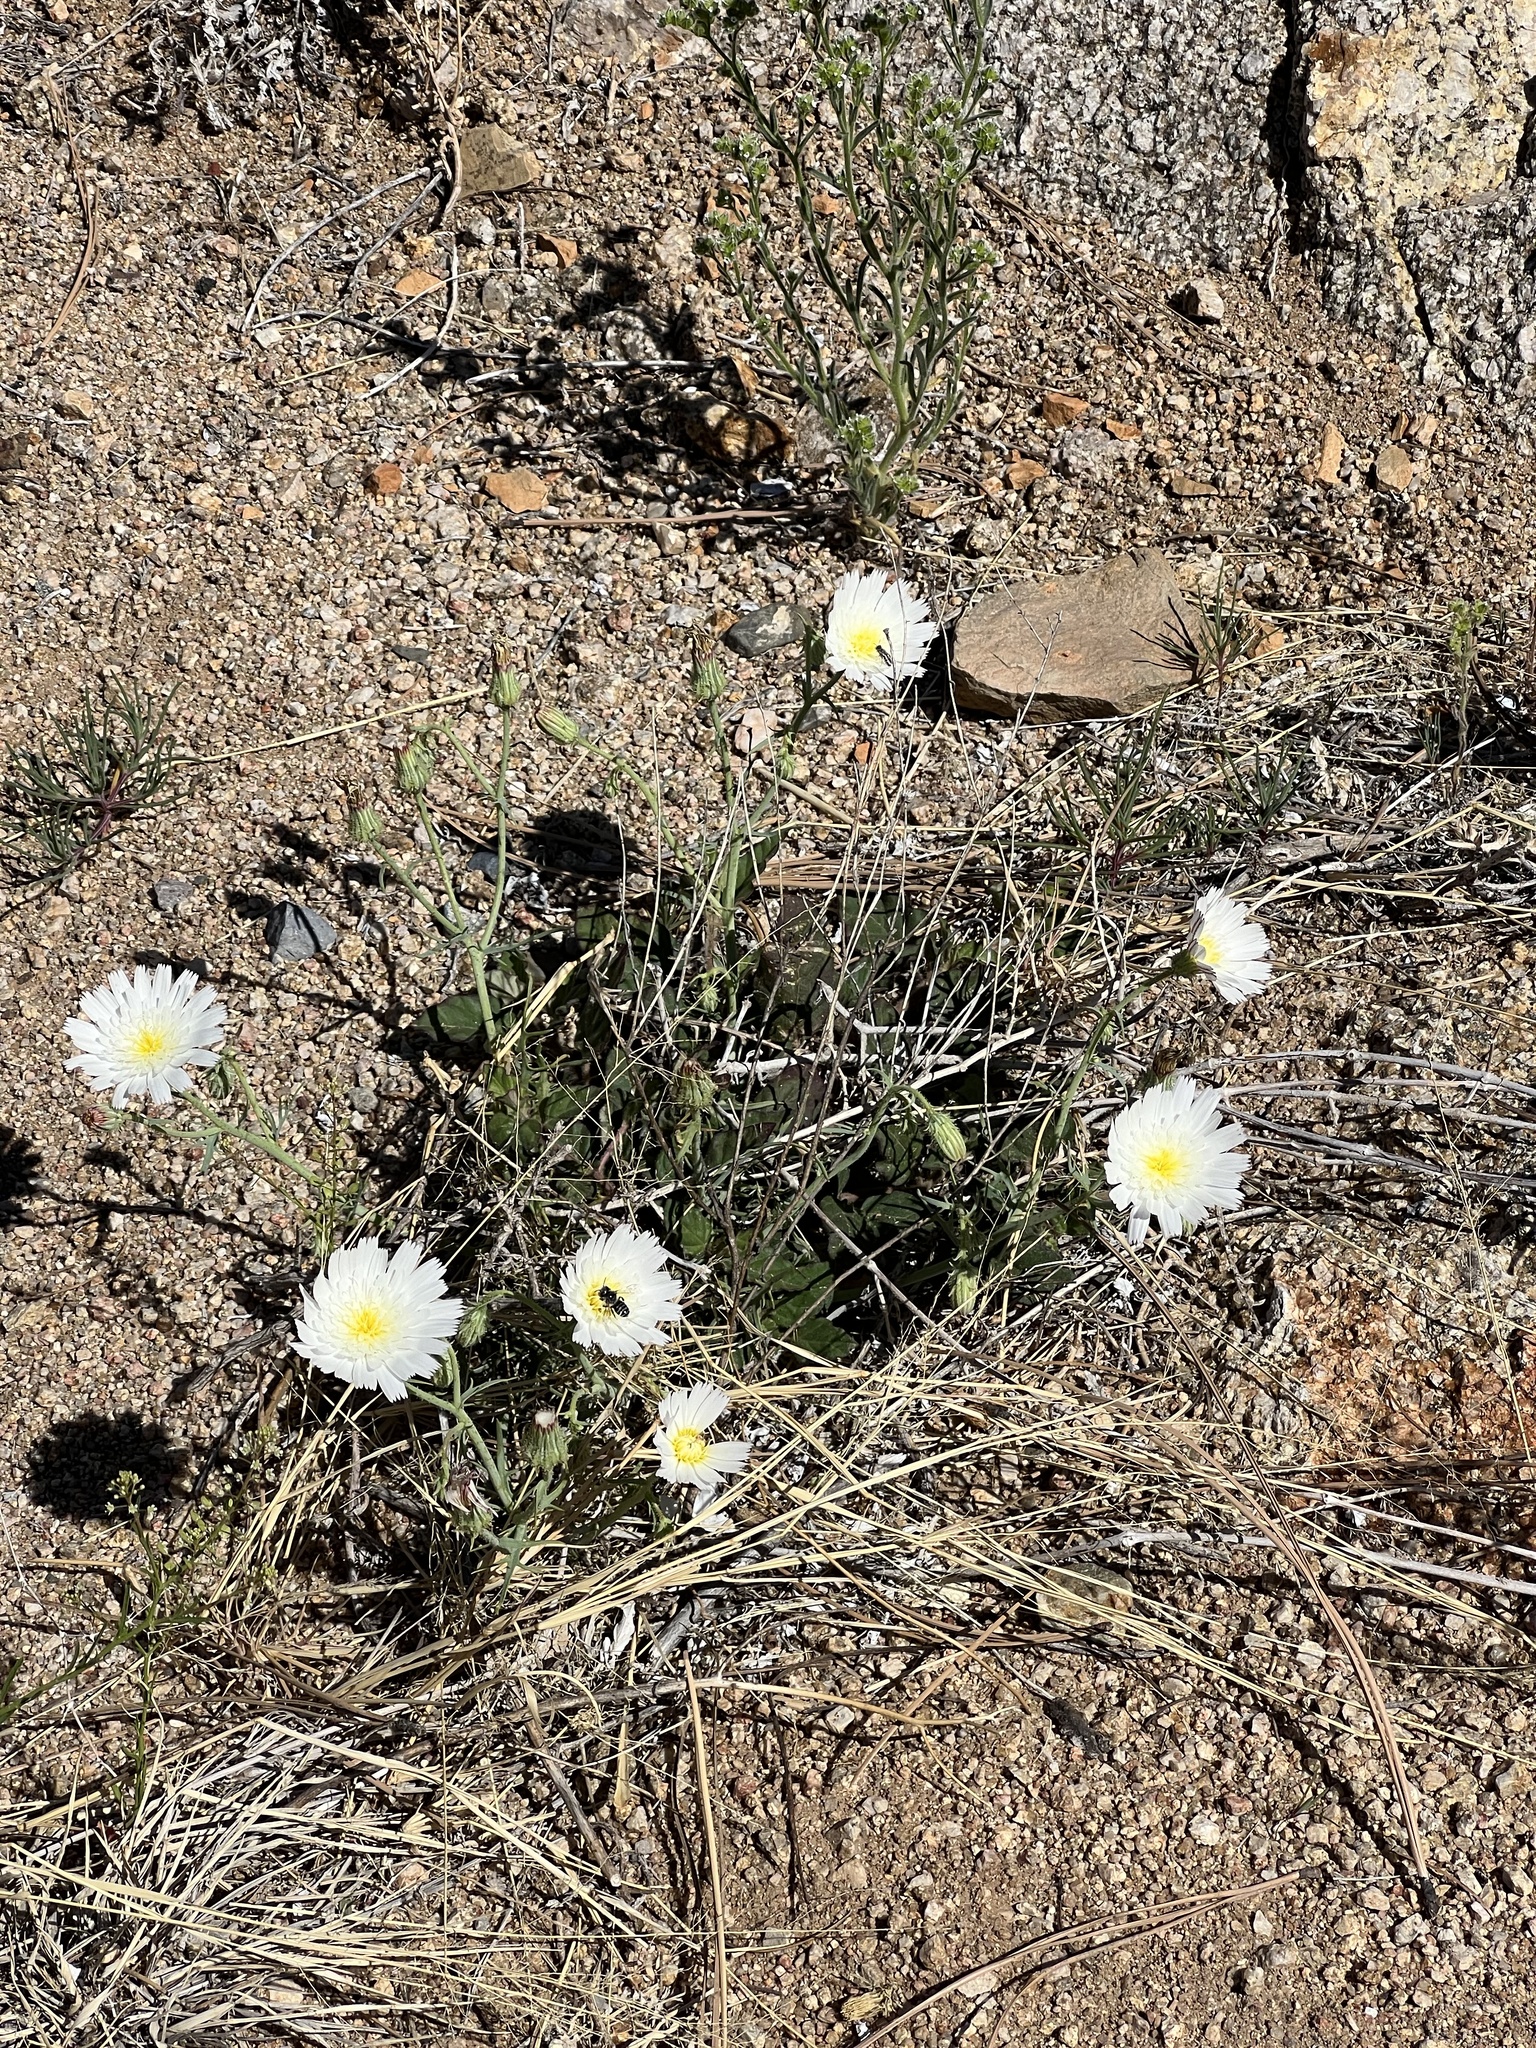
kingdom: Plantae
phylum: Tracheophyta
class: Magnoliopsida
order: Asterales
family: Asteraceae
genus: Calycoseris
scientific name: Calycoseris wrightii
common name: White tackstem
